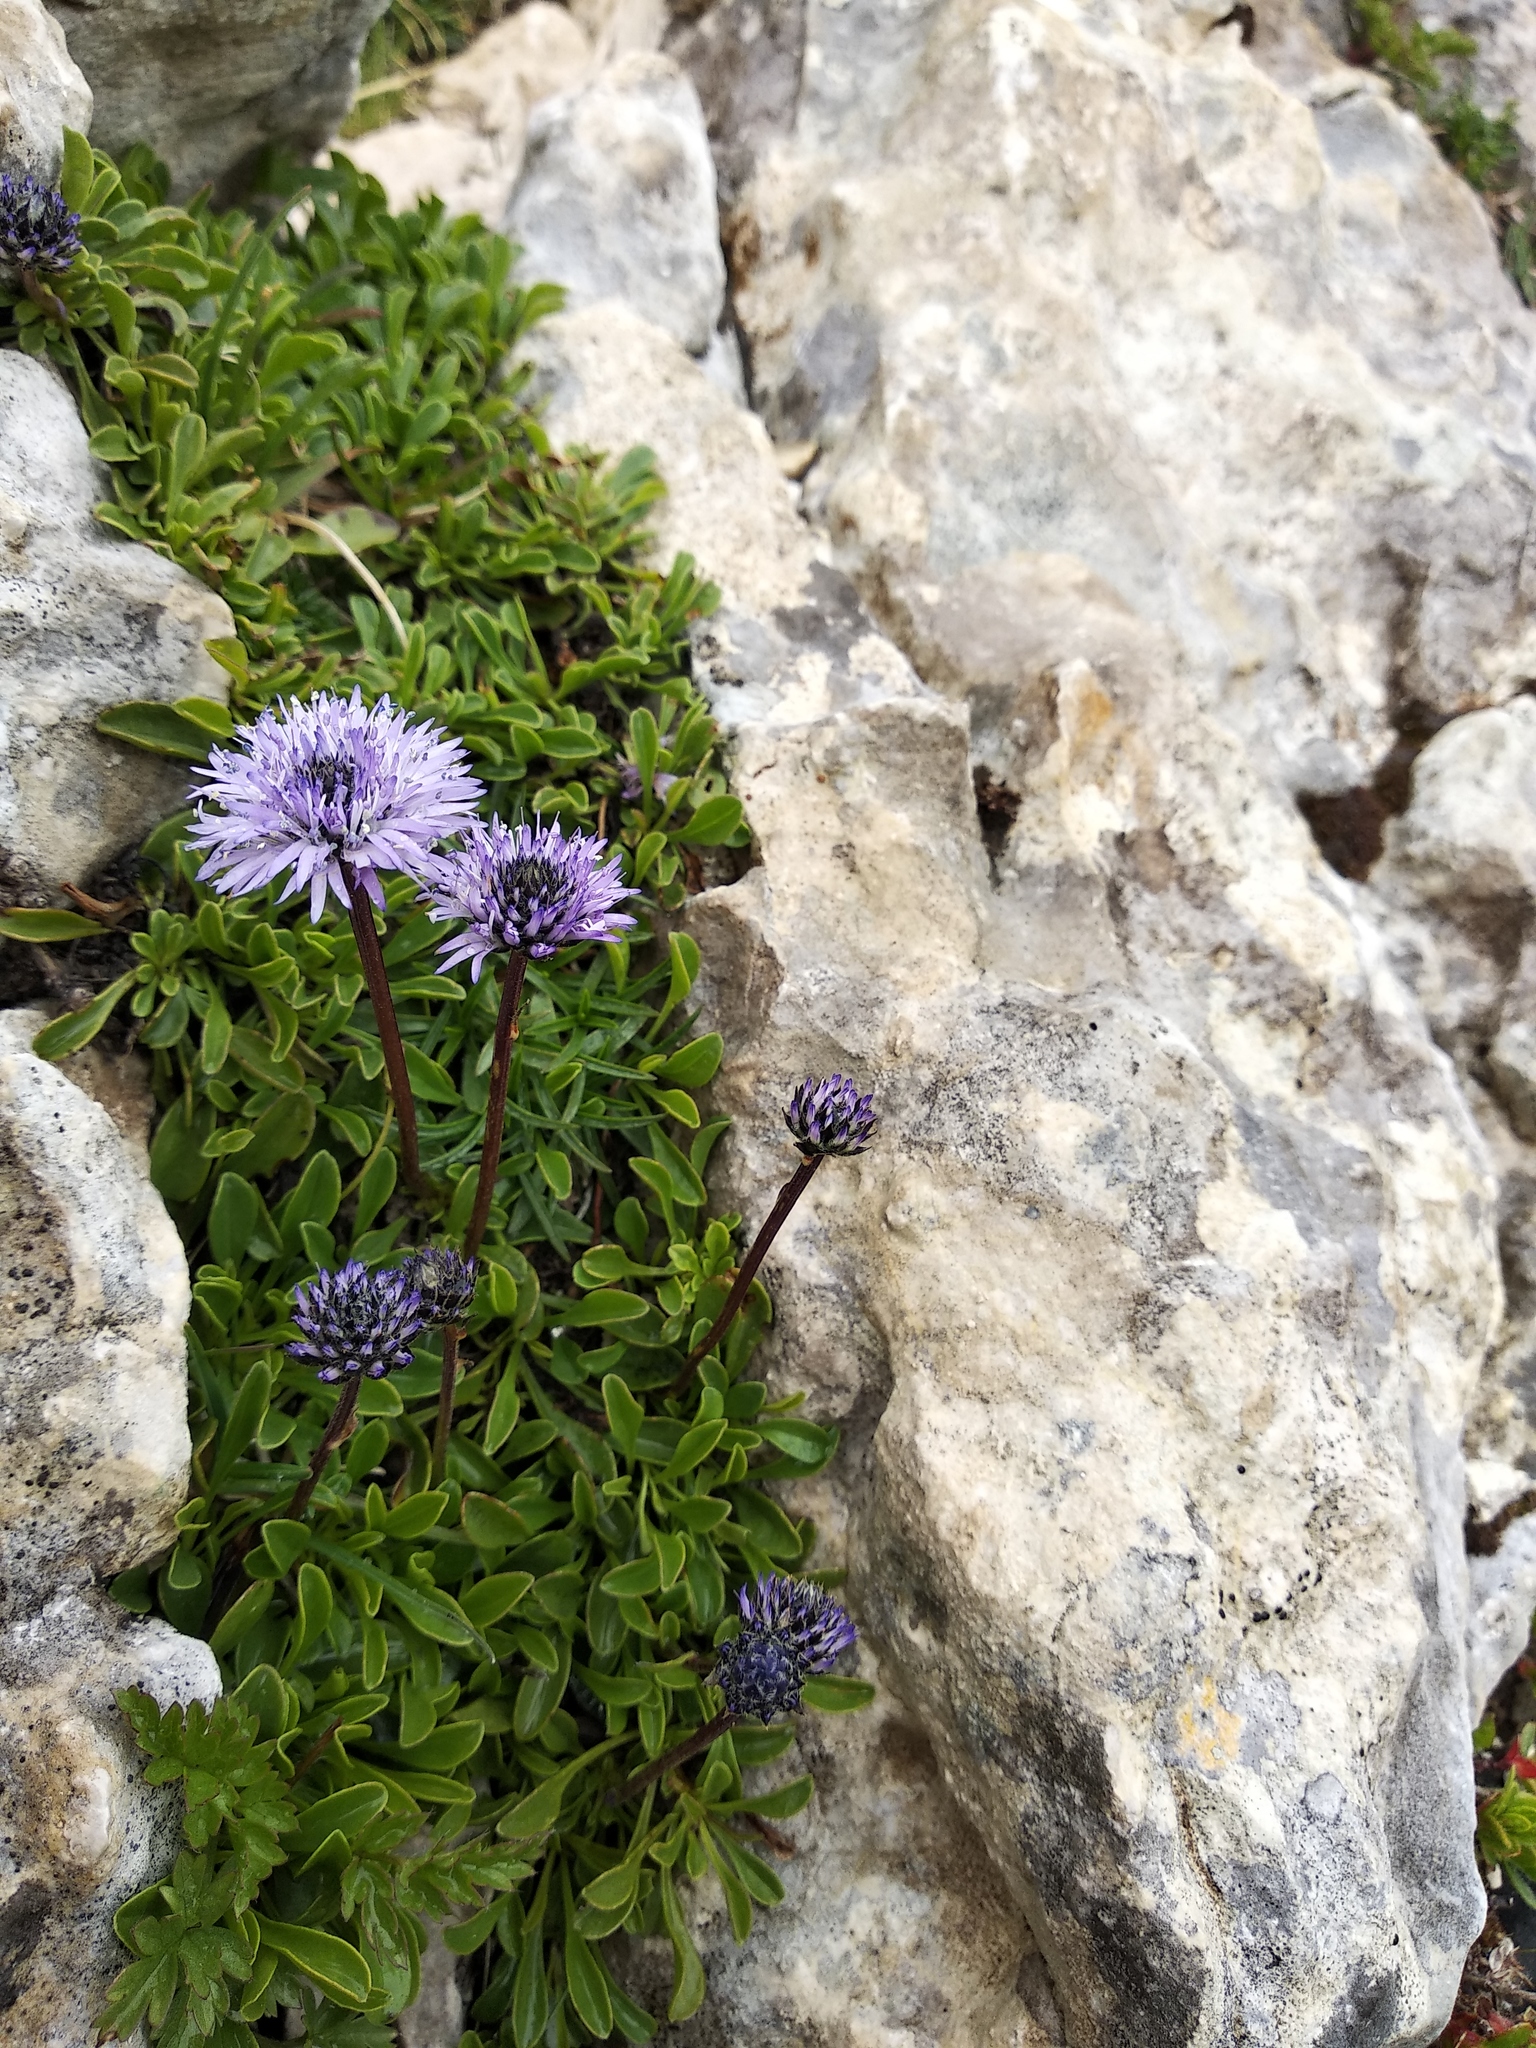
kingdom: Plantae
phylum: Tracheophyta
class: Magnoliopsida
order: Lamiales
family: Plantaginaceae
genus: Globularia
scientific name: Globularia meridionalis
